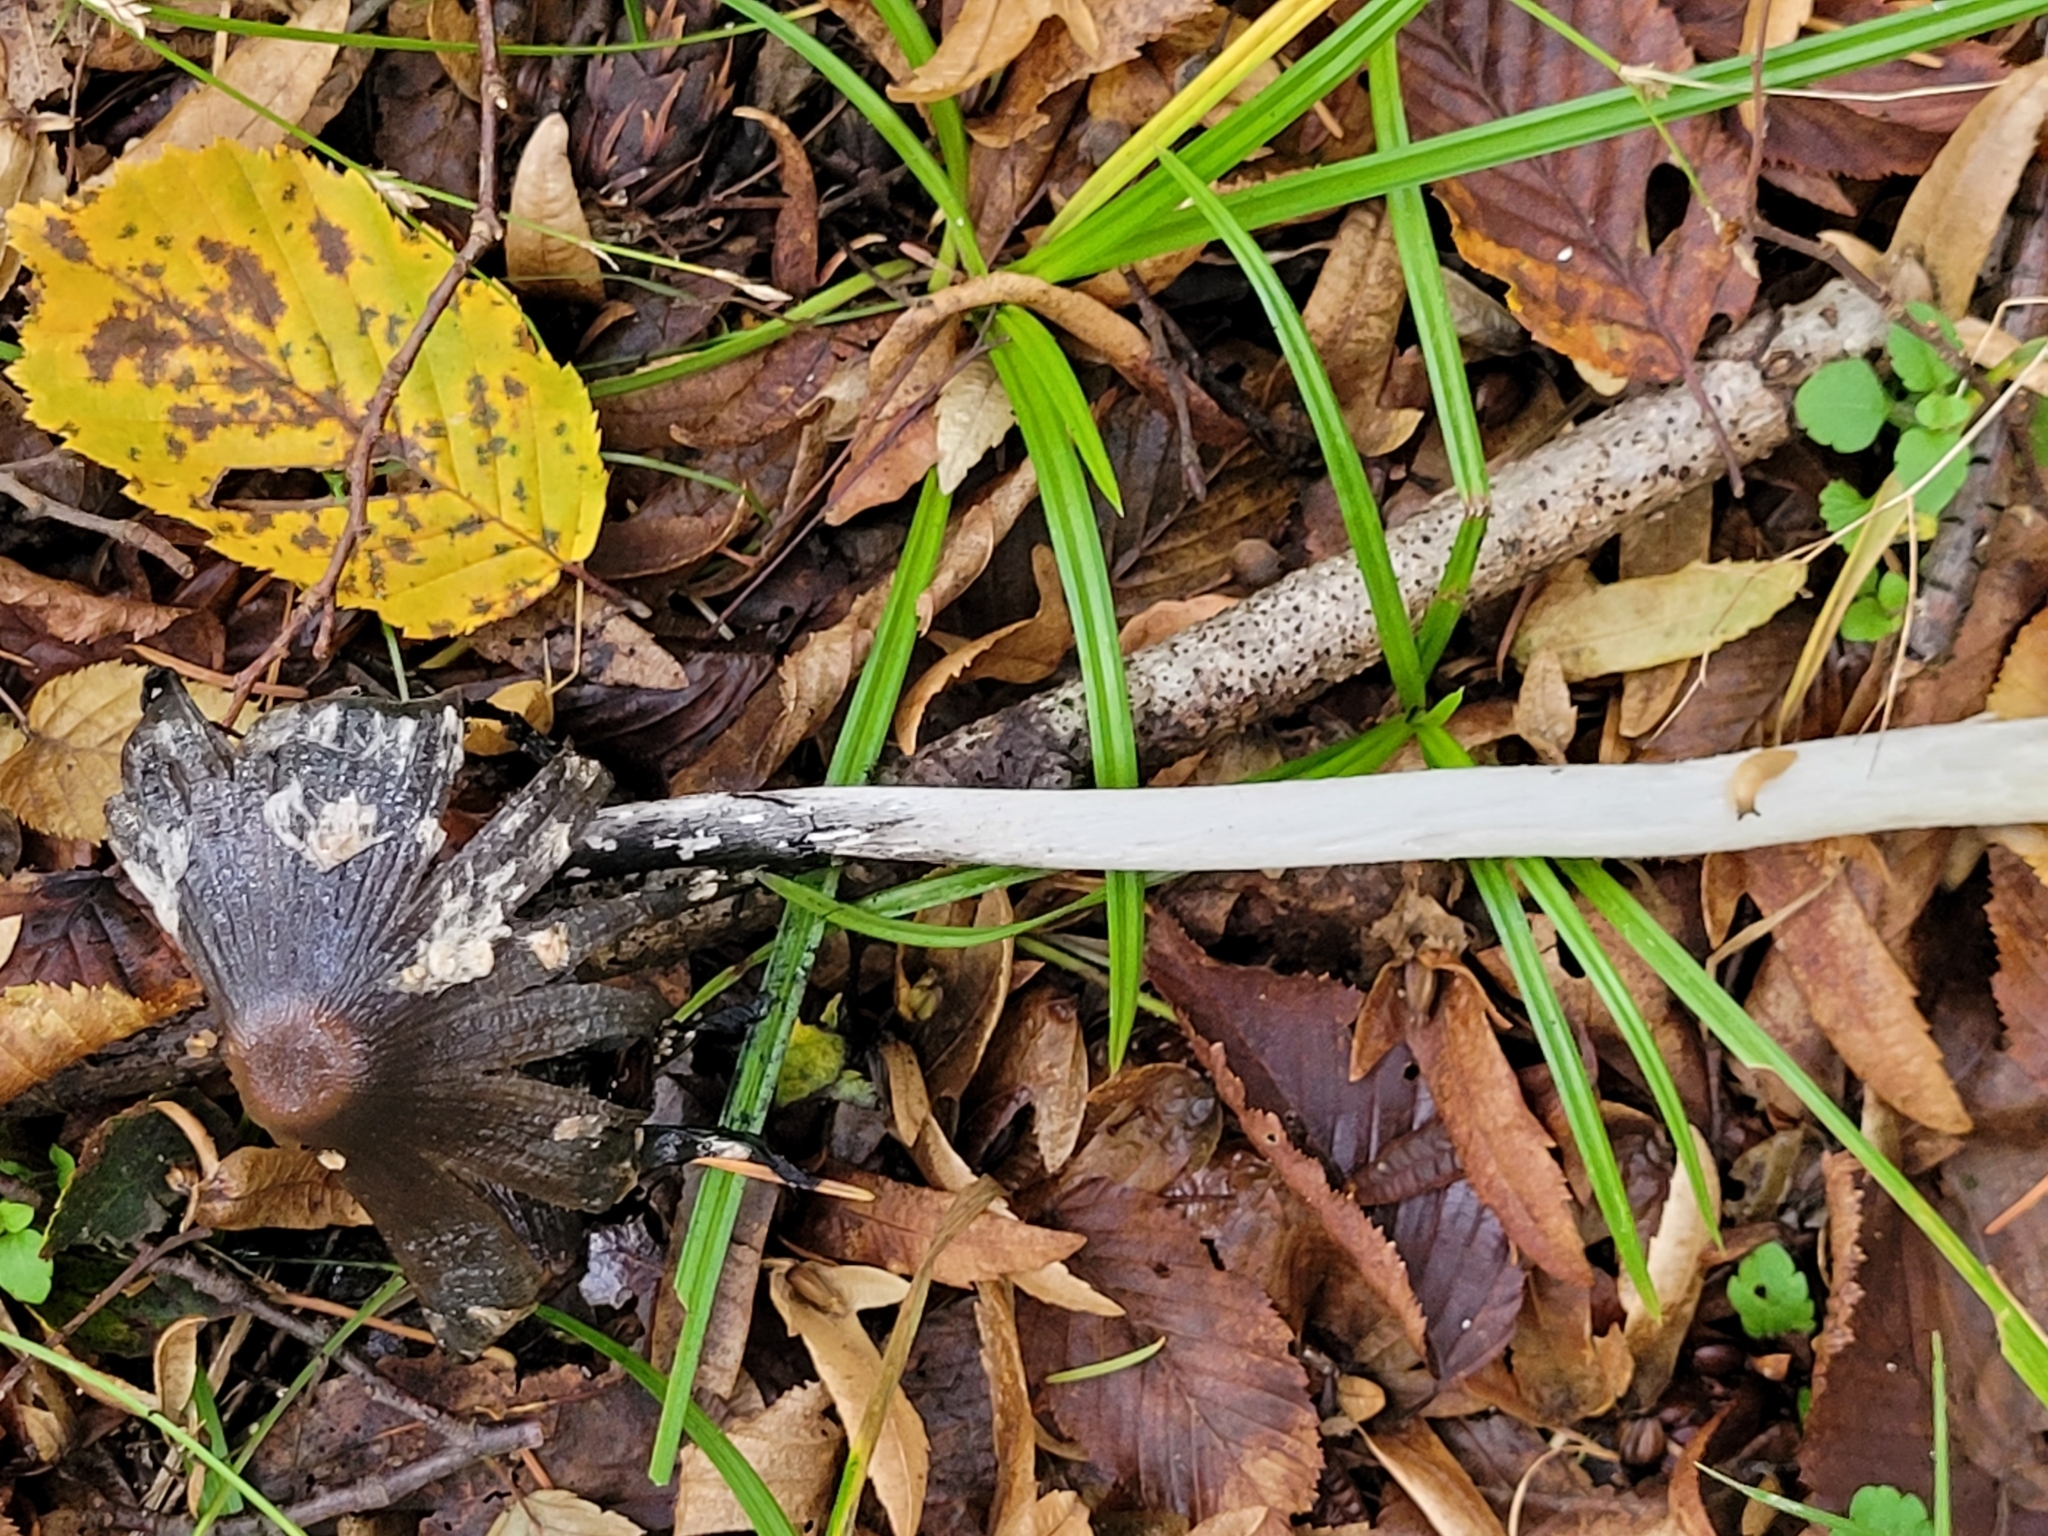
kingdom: Fungi
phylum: Basidiomycota
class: Agaricomycetes
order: Agaricales
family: Psathyrellaceae
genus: Coprinopsis
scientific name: Coprinopsis picacea
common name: Magpie inkcap
